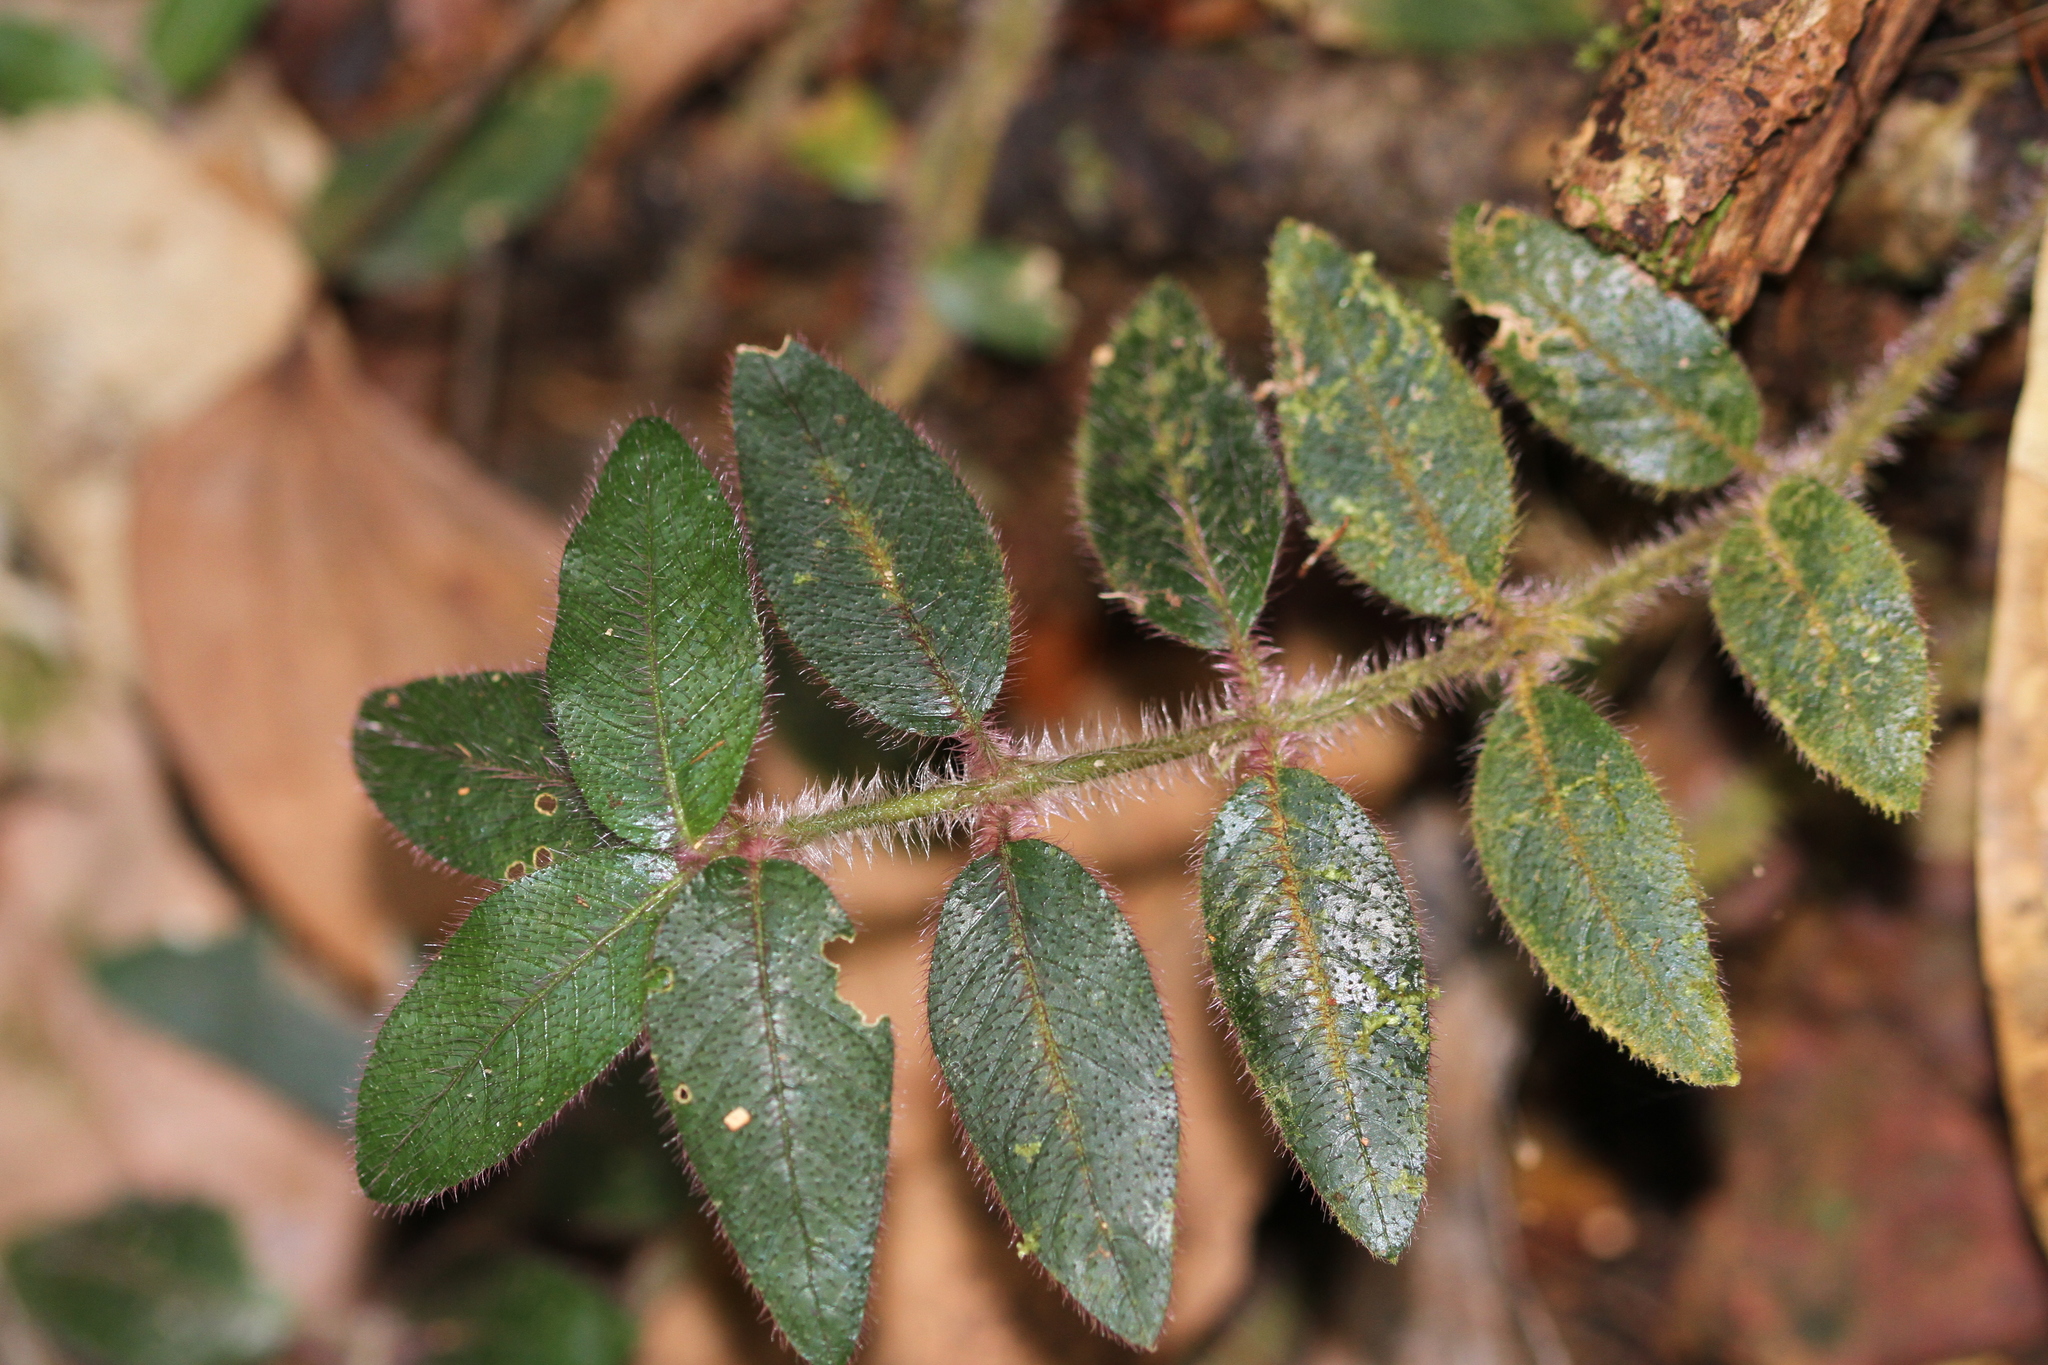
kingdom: Plantae
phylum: Tracheophyta
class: Magnoliopsida
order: Gentianales
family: Rubiaceae
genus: Palicourea
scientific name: Palicourea debilis
